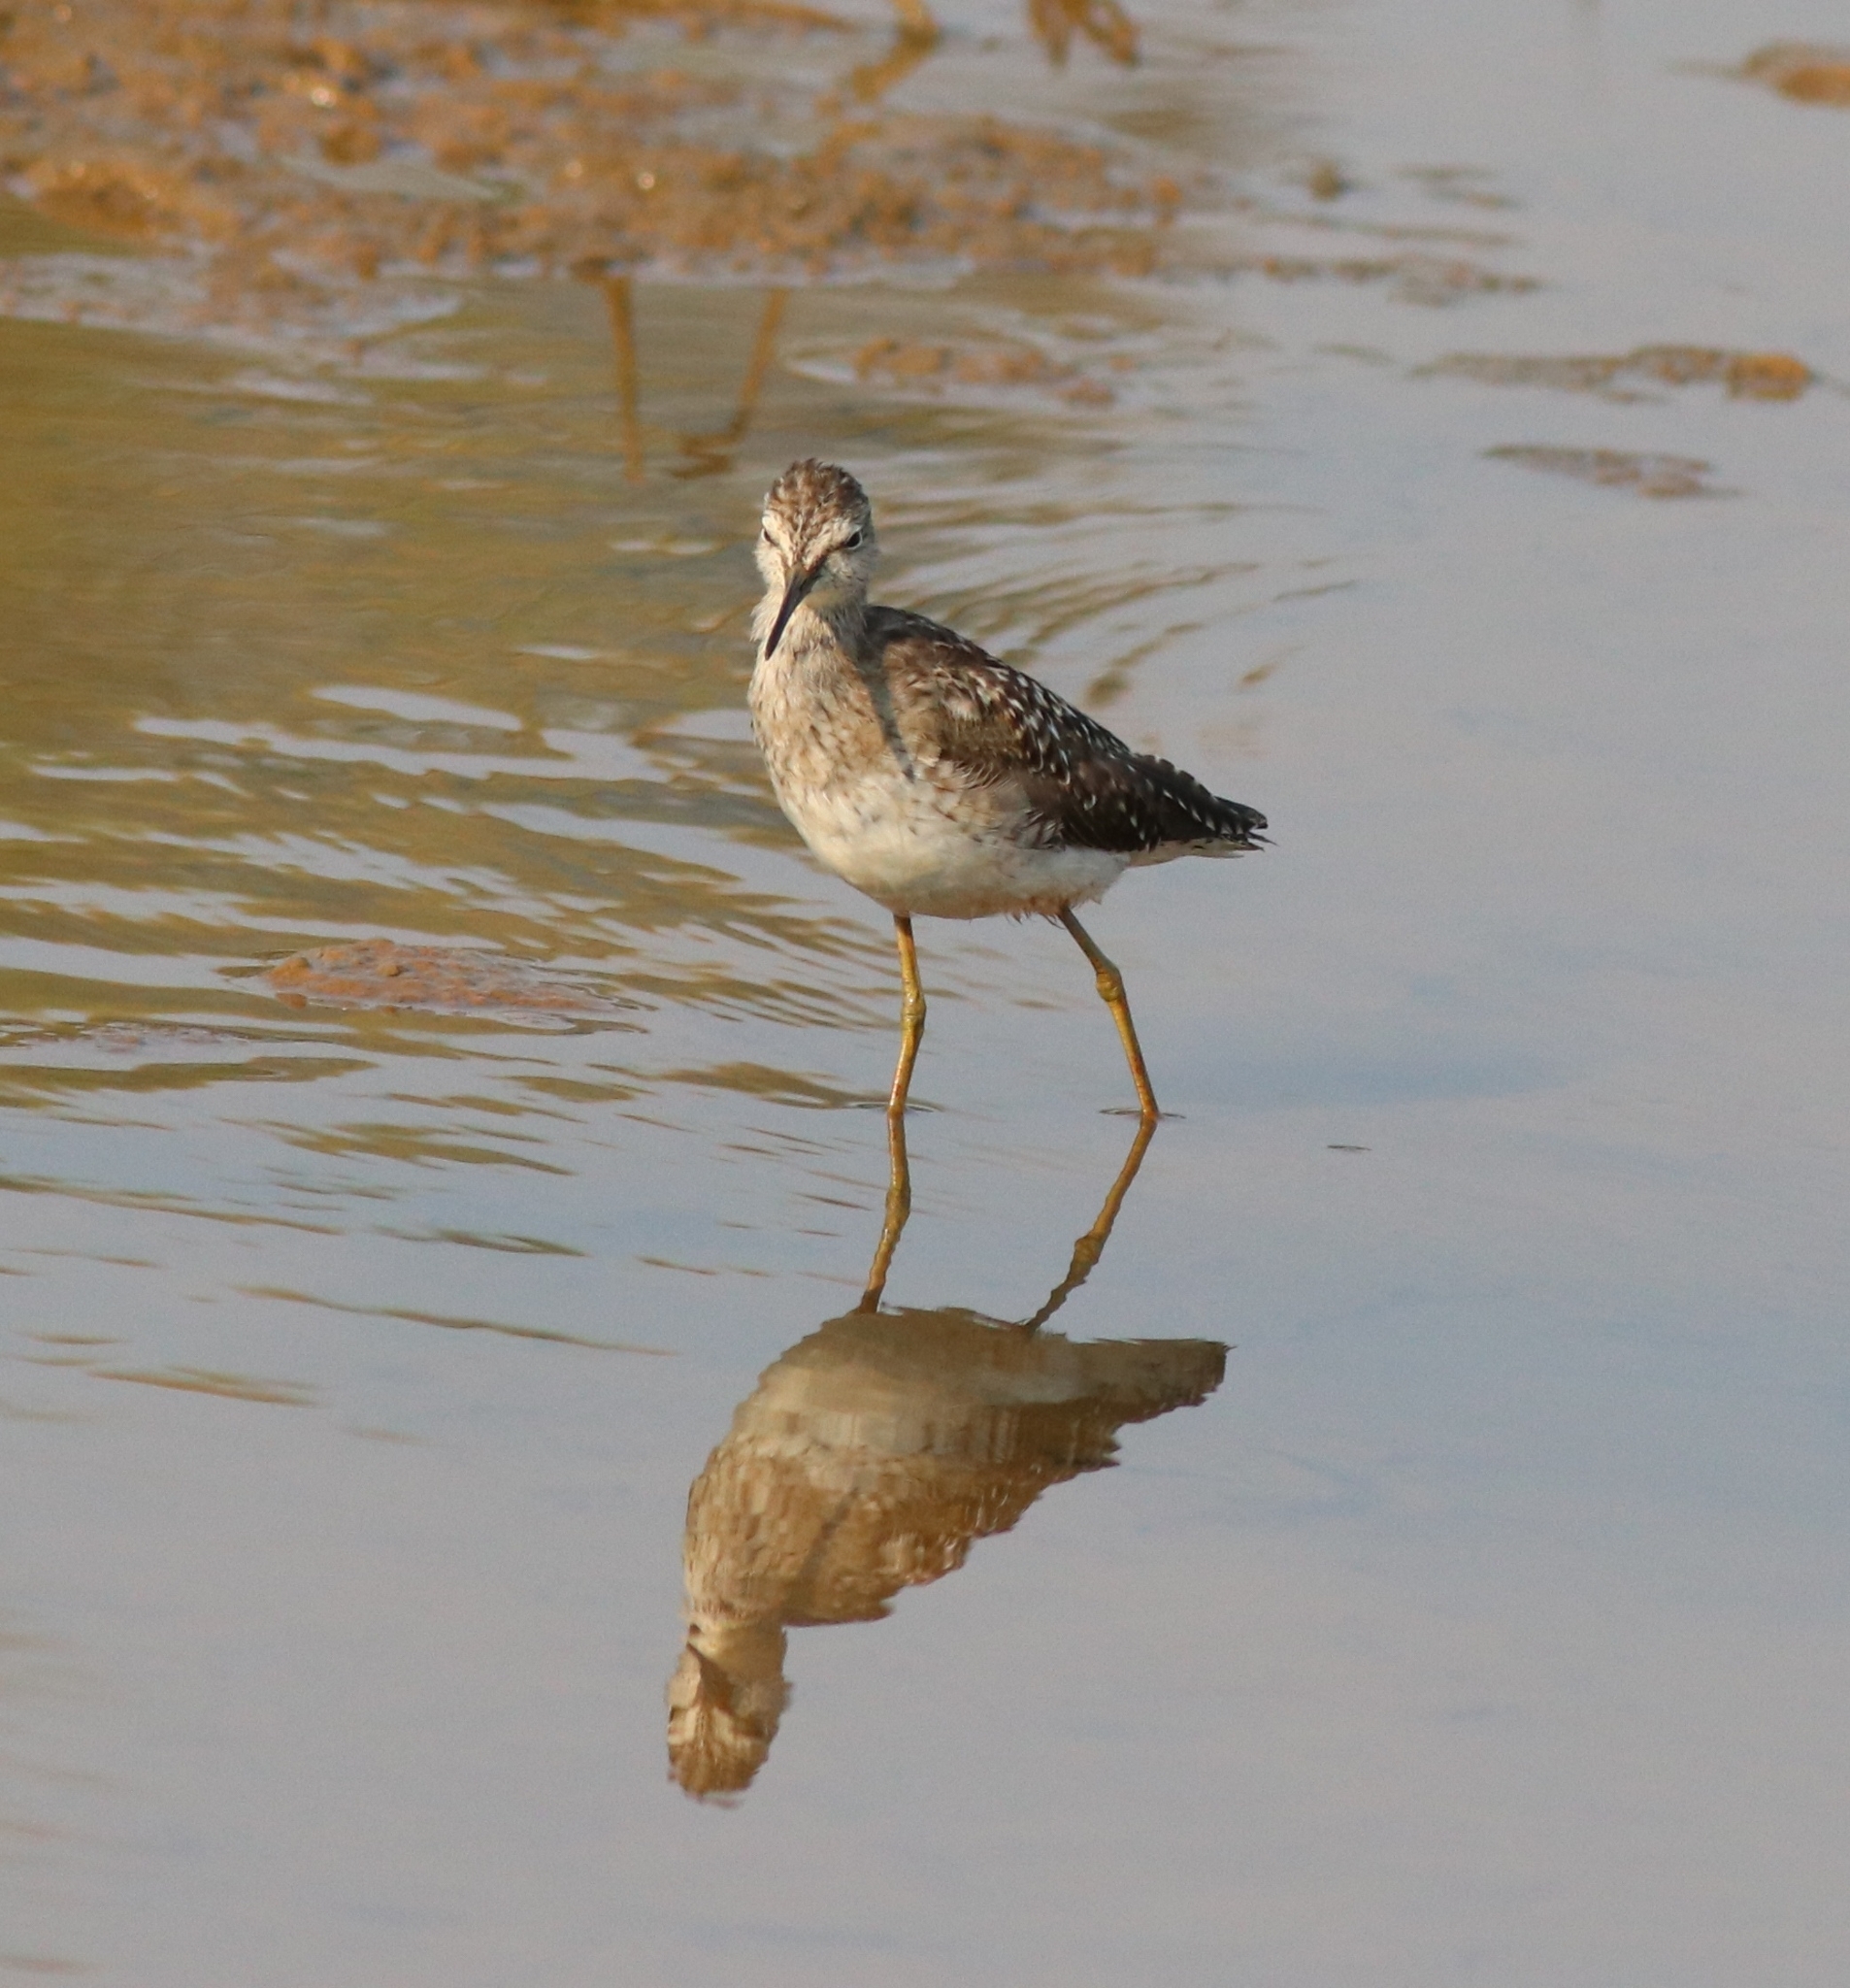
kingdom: Animalia
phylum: Chordata
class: Aves
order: Charadriiformes
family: Scolopacidae
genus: Tringa
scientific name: Tringa glareola
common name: Wood sandpiper
